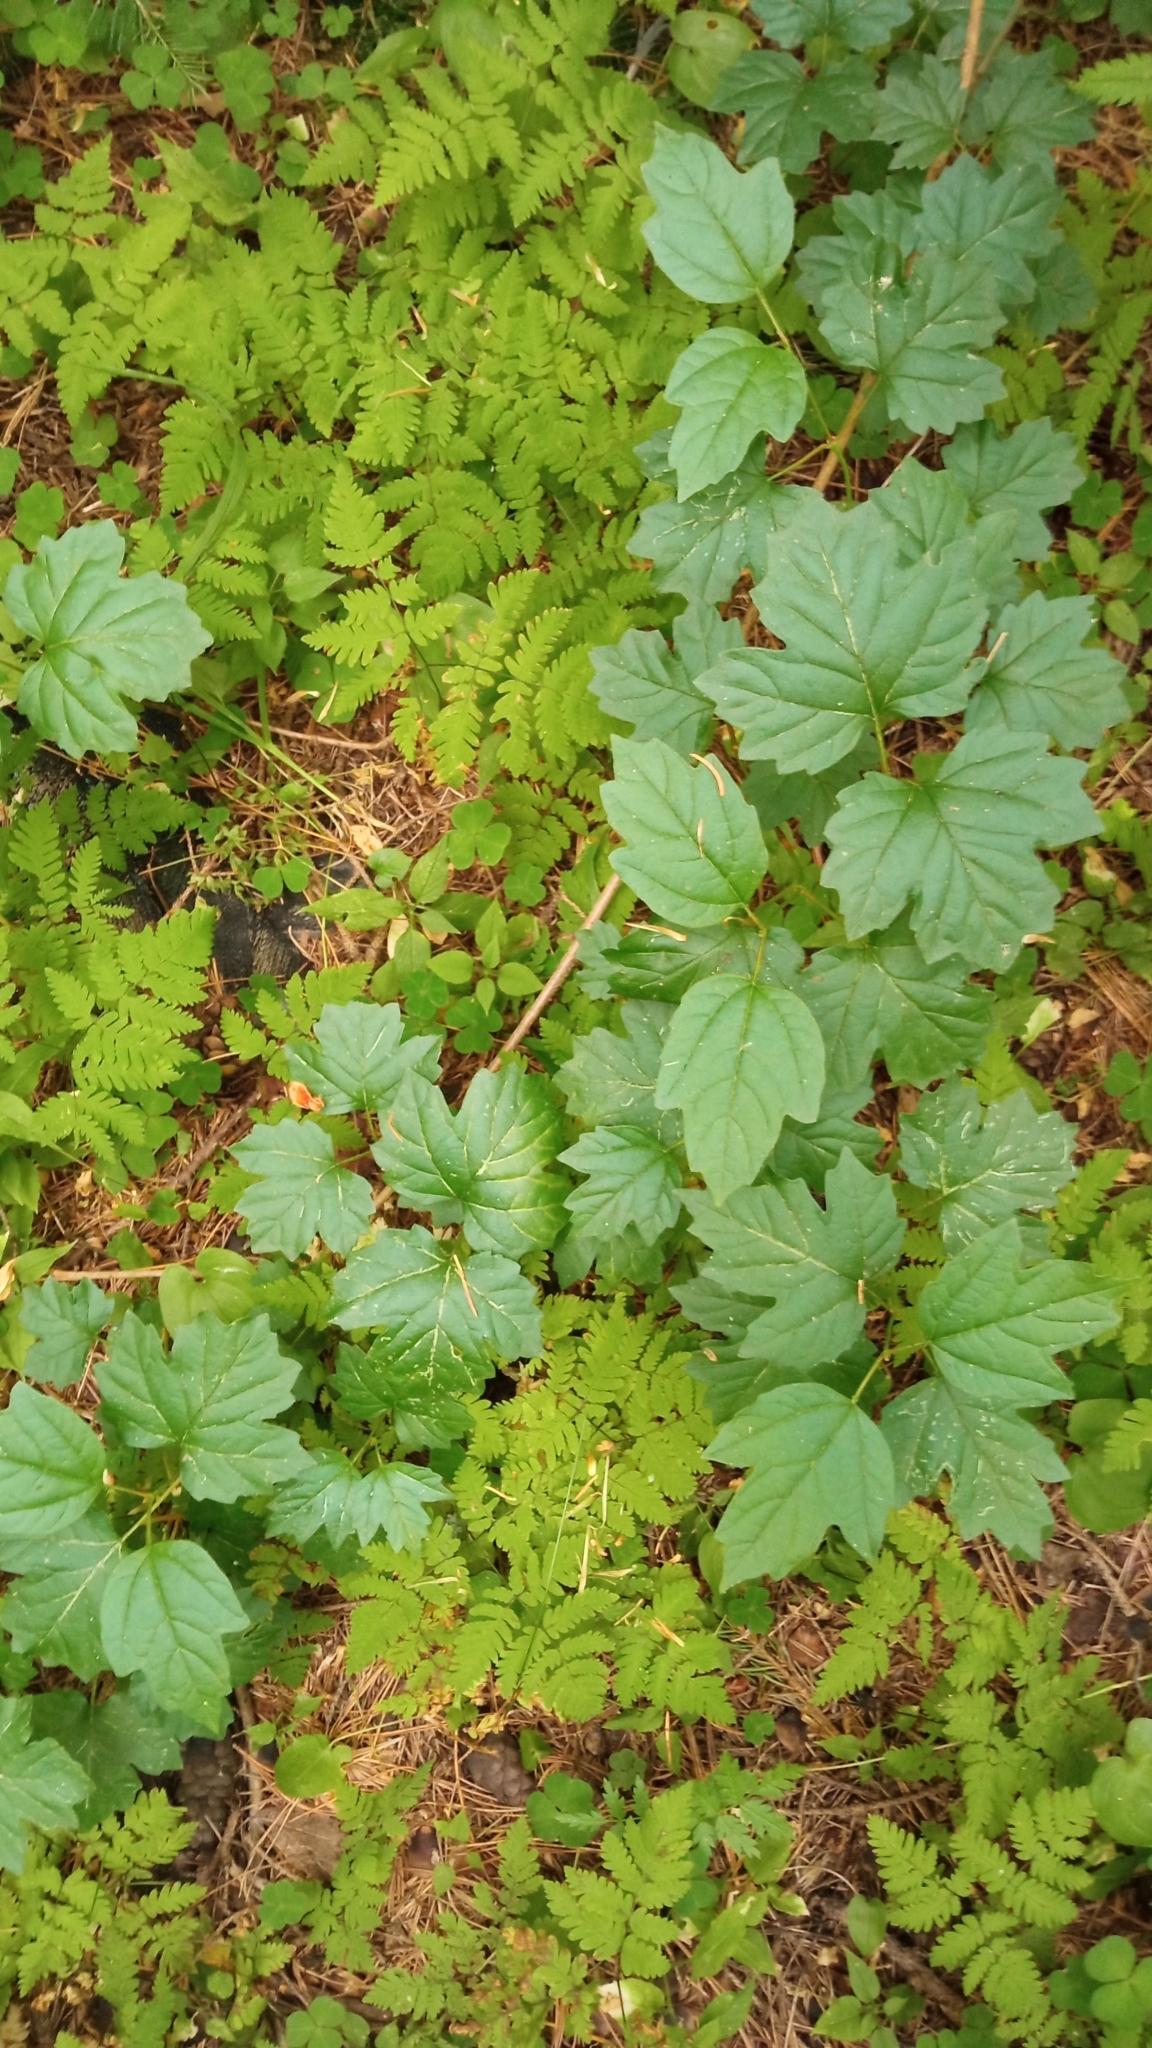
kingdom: Plantae
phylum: Tracheophyta
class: Magnoliopsida
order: Dipsacales
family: Viburnaceae
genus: Viburnum
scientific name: Viburnum opulus
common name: Guelder-rose
